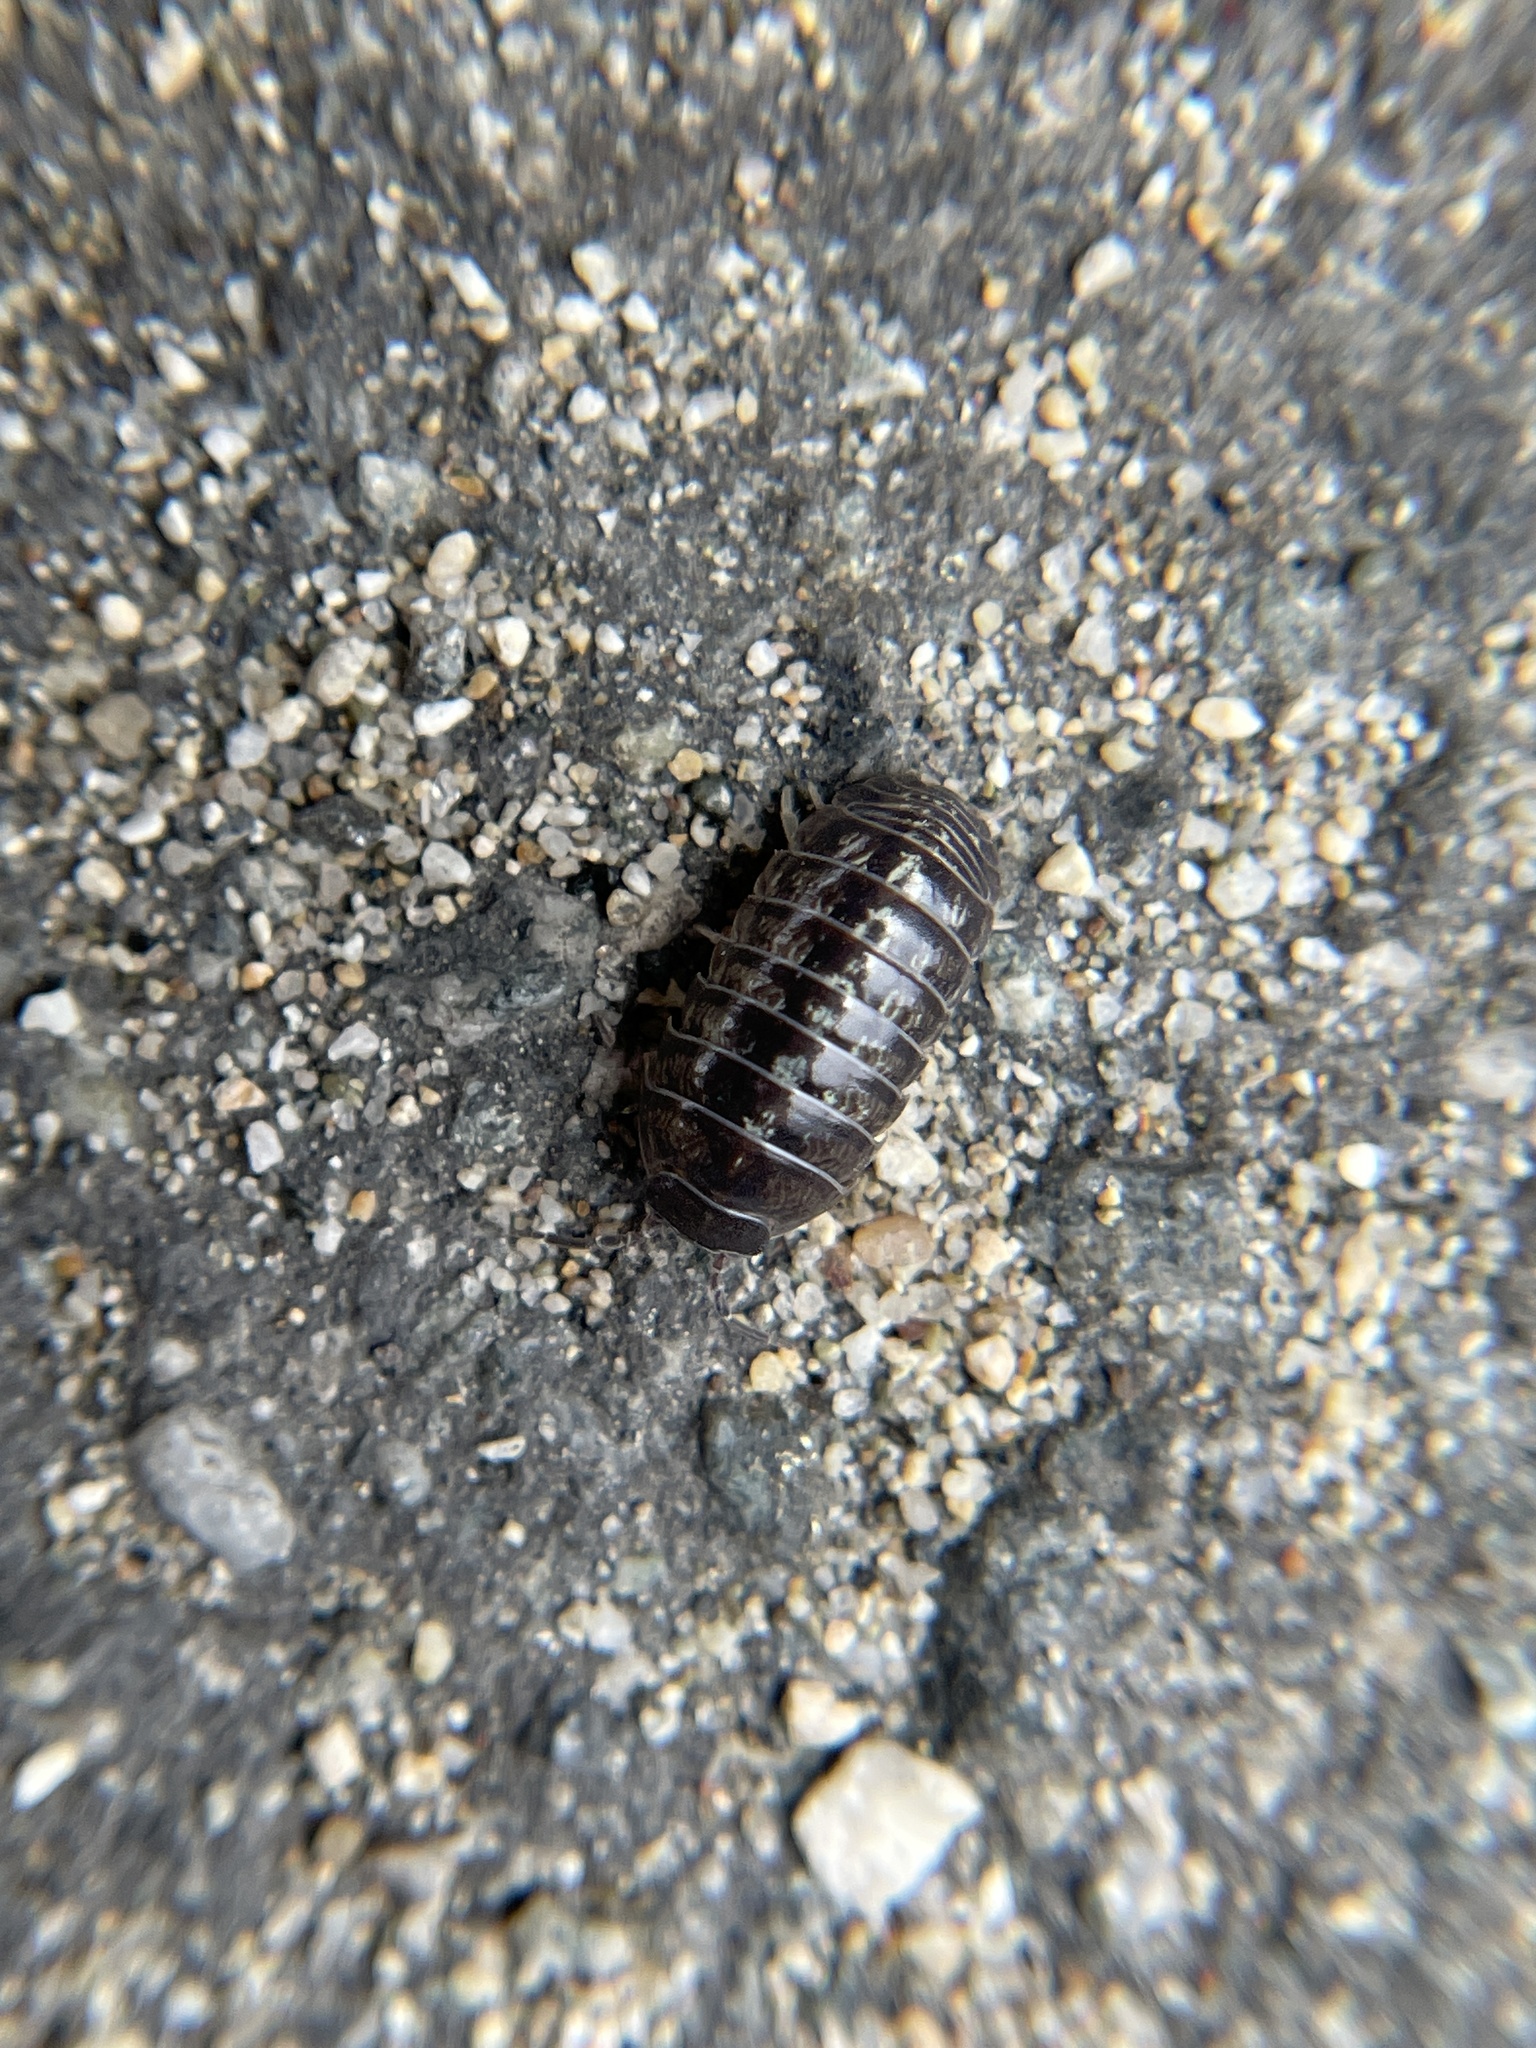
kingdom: Animalia
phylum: Arthropoda
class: Malacostraca
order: Isopoda
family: Armadillidiidae
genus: Armadillidium
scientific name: Armadillidium vulgare
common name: Common pill woodlouse
